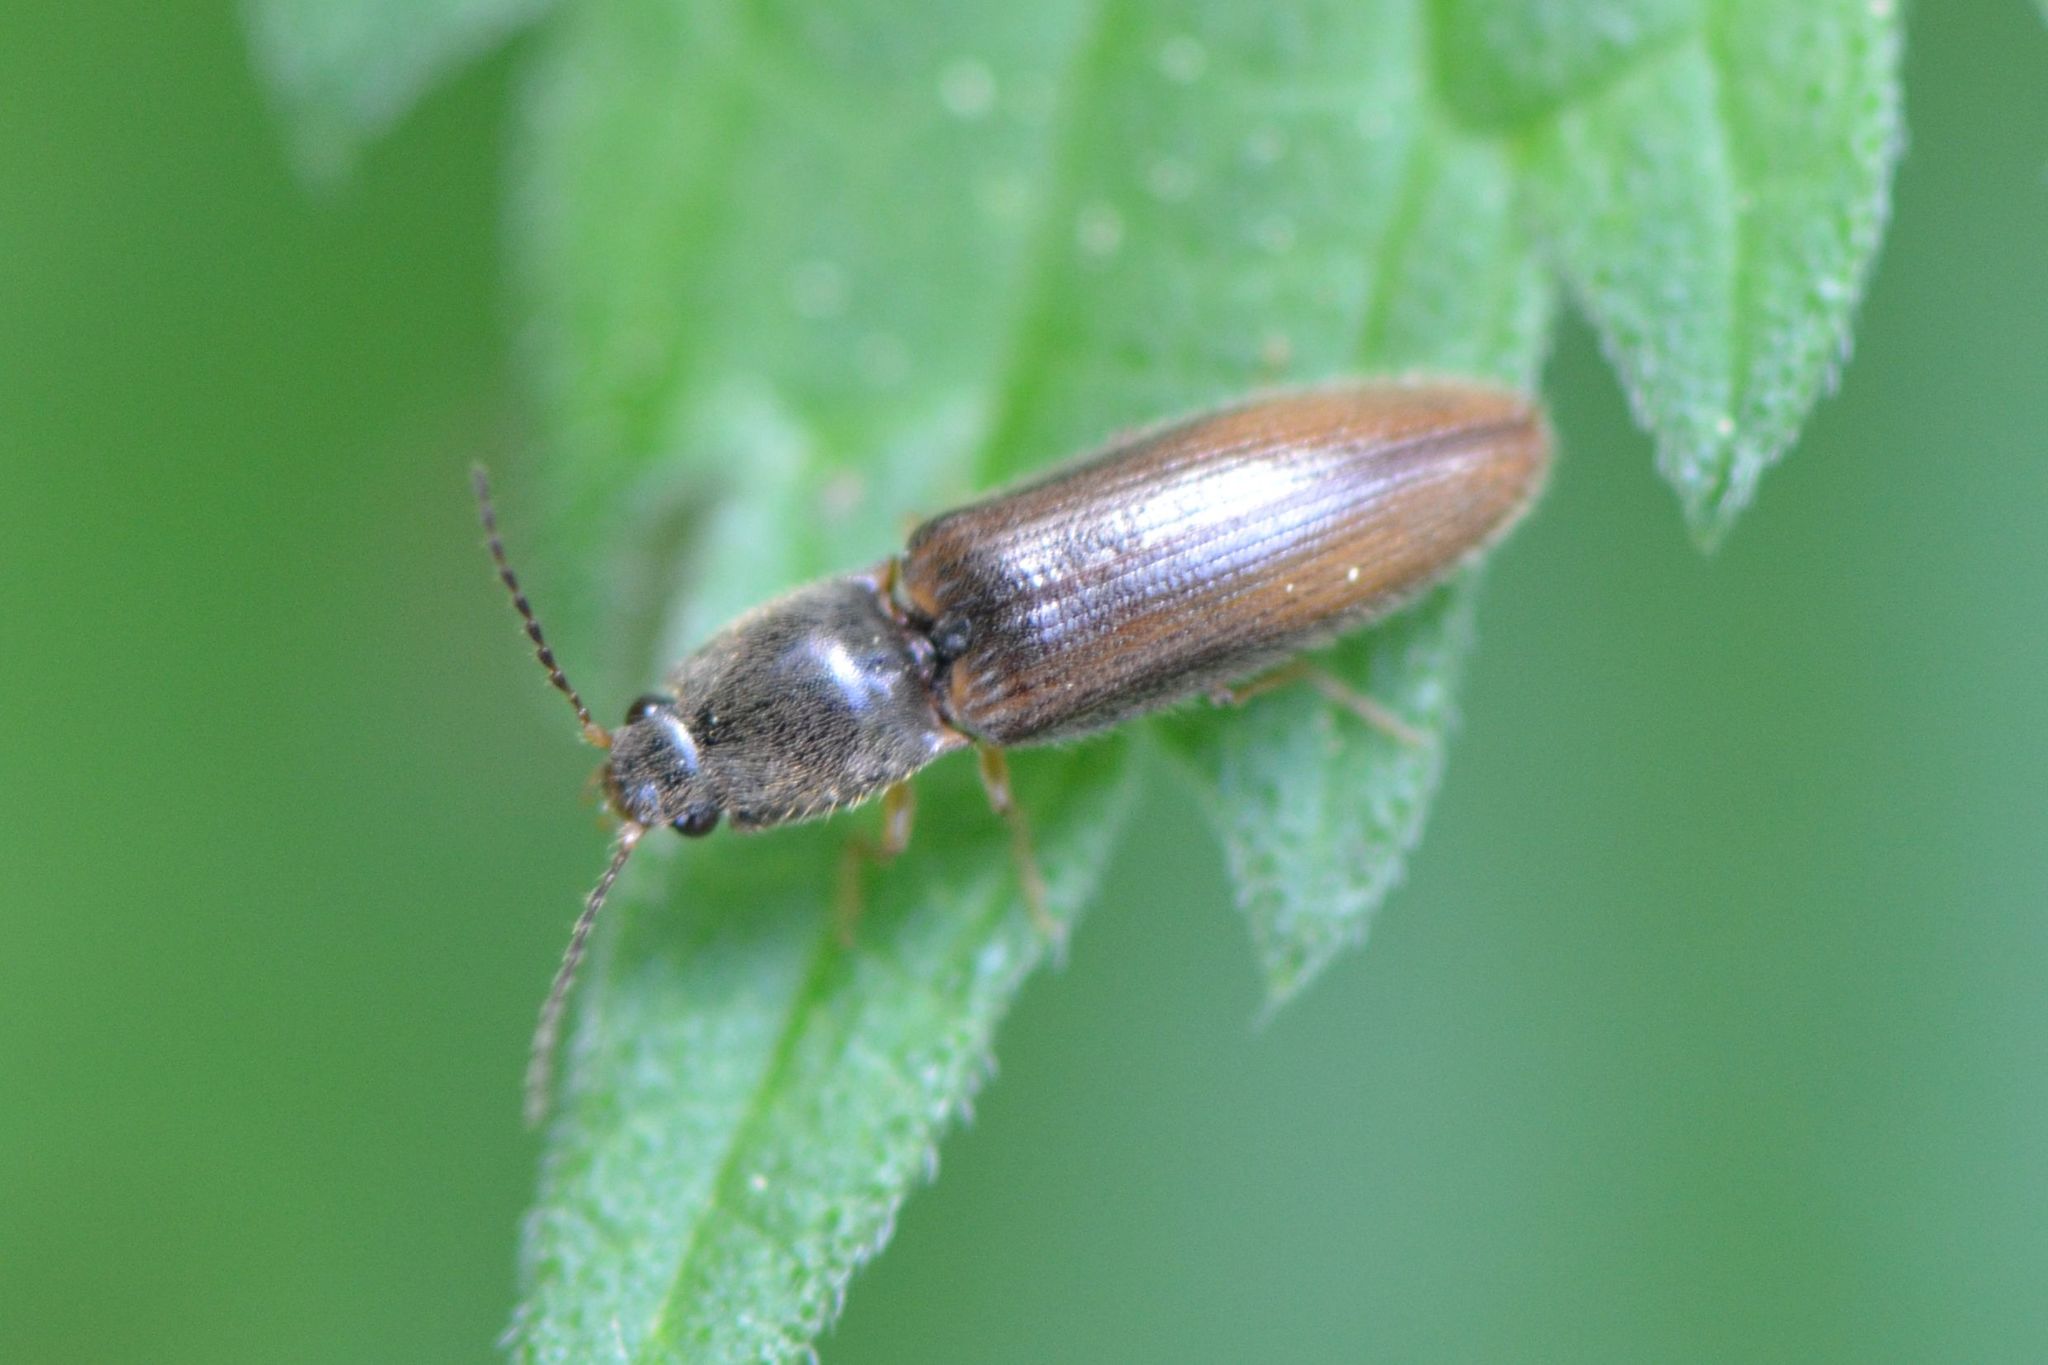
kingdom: Animalia
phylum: Arthropoda
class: Insecta
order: Coleoptera
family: Elateridae
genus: Athous
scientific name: Athous vittatus
